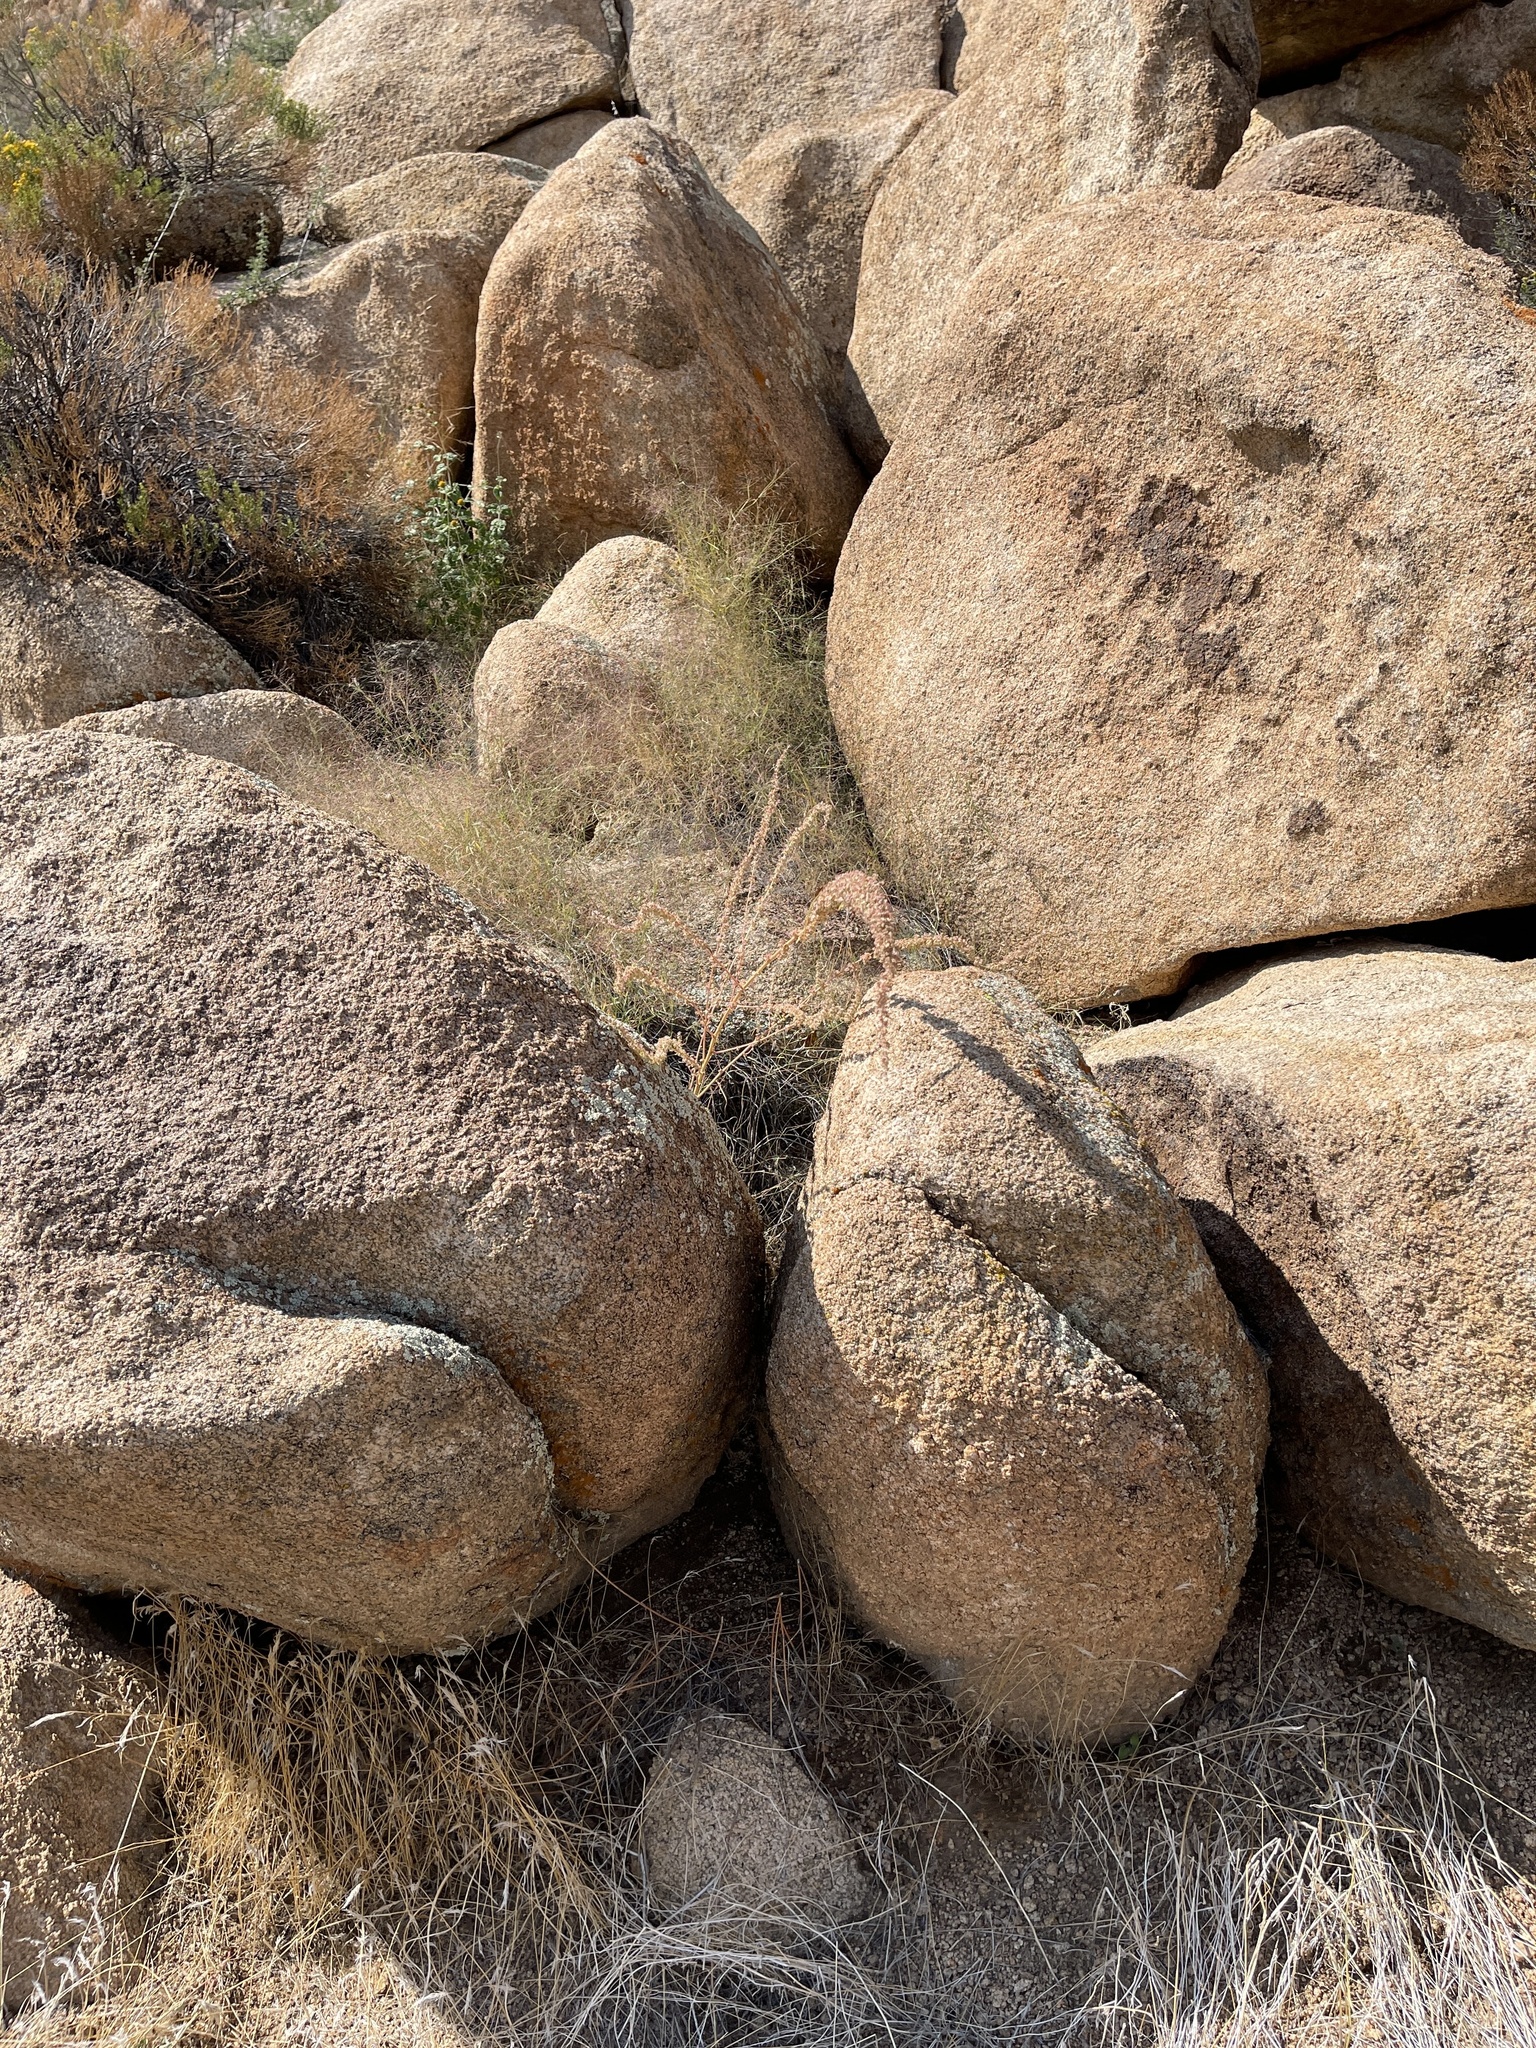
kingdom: Plantae
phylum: Tracheophyta
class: Magnoliopsida
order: Caryophyllales
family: Amaranthaceae
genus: Amaranthus
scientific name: Amaranthus fimbriatus
